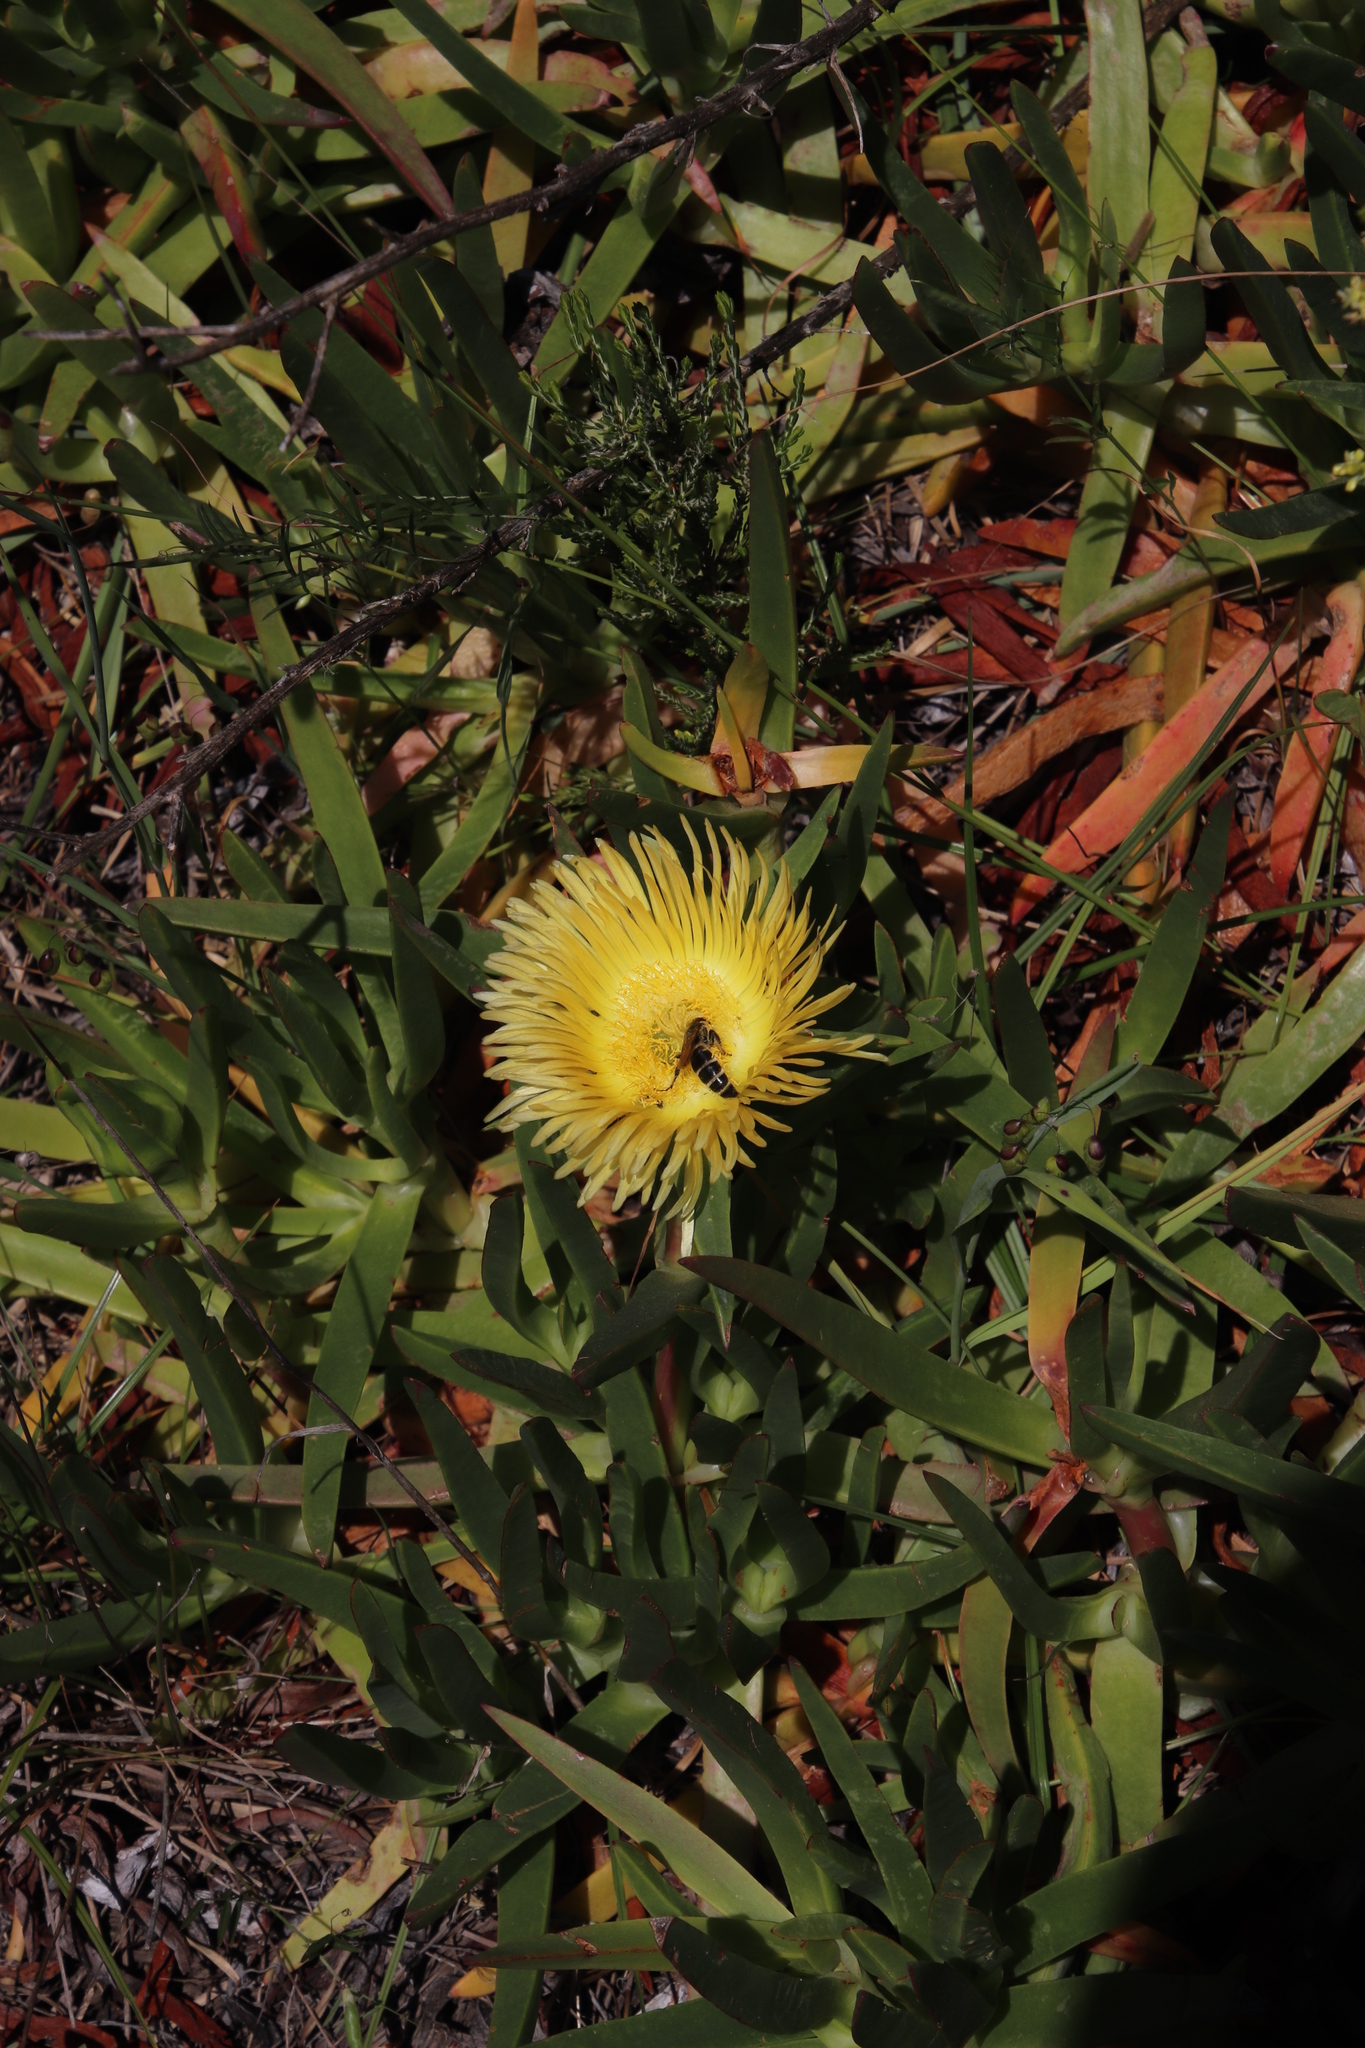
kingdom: Plantae
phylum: Tracheophyta
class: Magnoliopsida
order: Caryophyllales
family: Aizoaceae
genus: Carpobrotus
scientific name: Carpobrotus edulis
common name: Hottentot-fig
